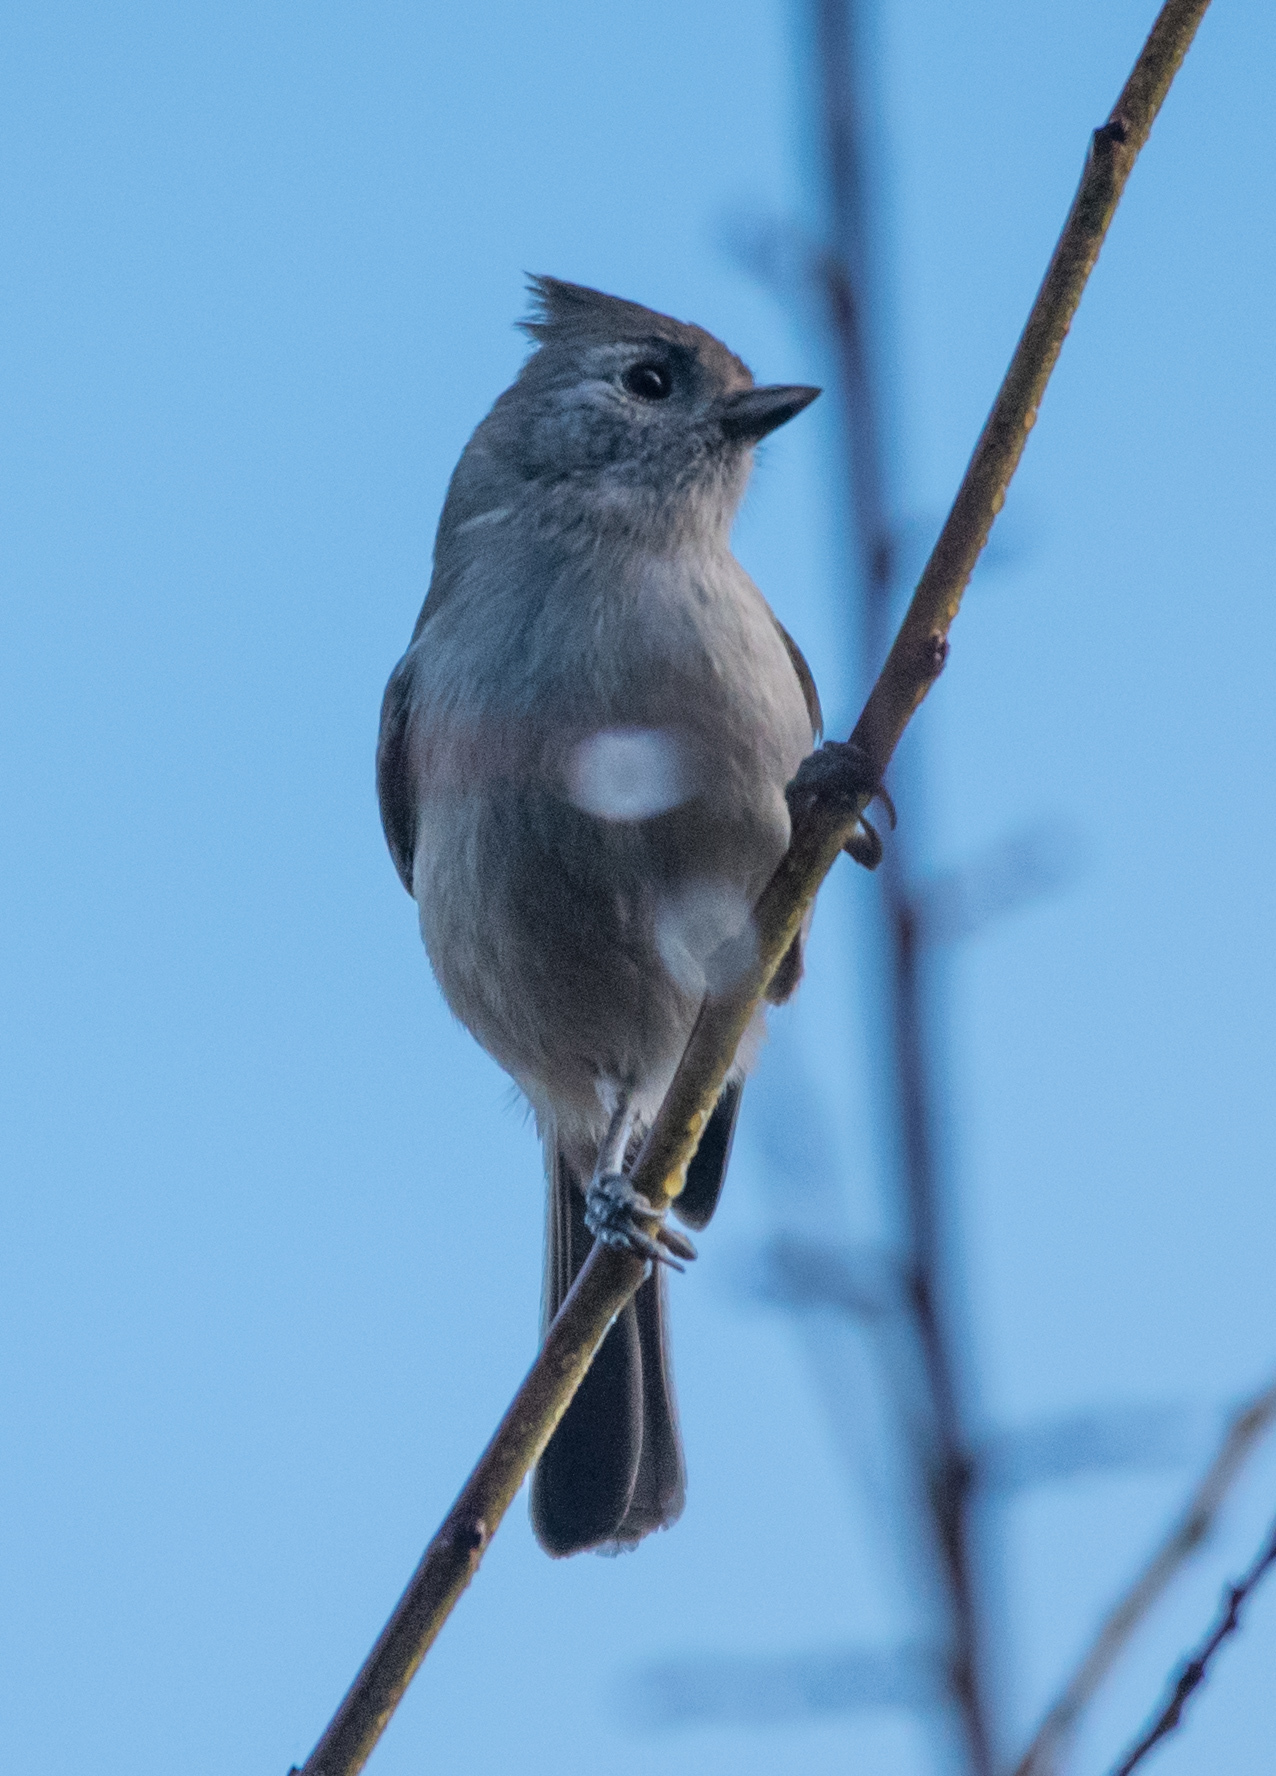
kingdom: Animalia
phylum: Chordata
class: Aves
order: Passeriformes
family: Paridae
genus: Baeolophus
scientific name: Baeolophus inornatus
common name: Oak titmouse
